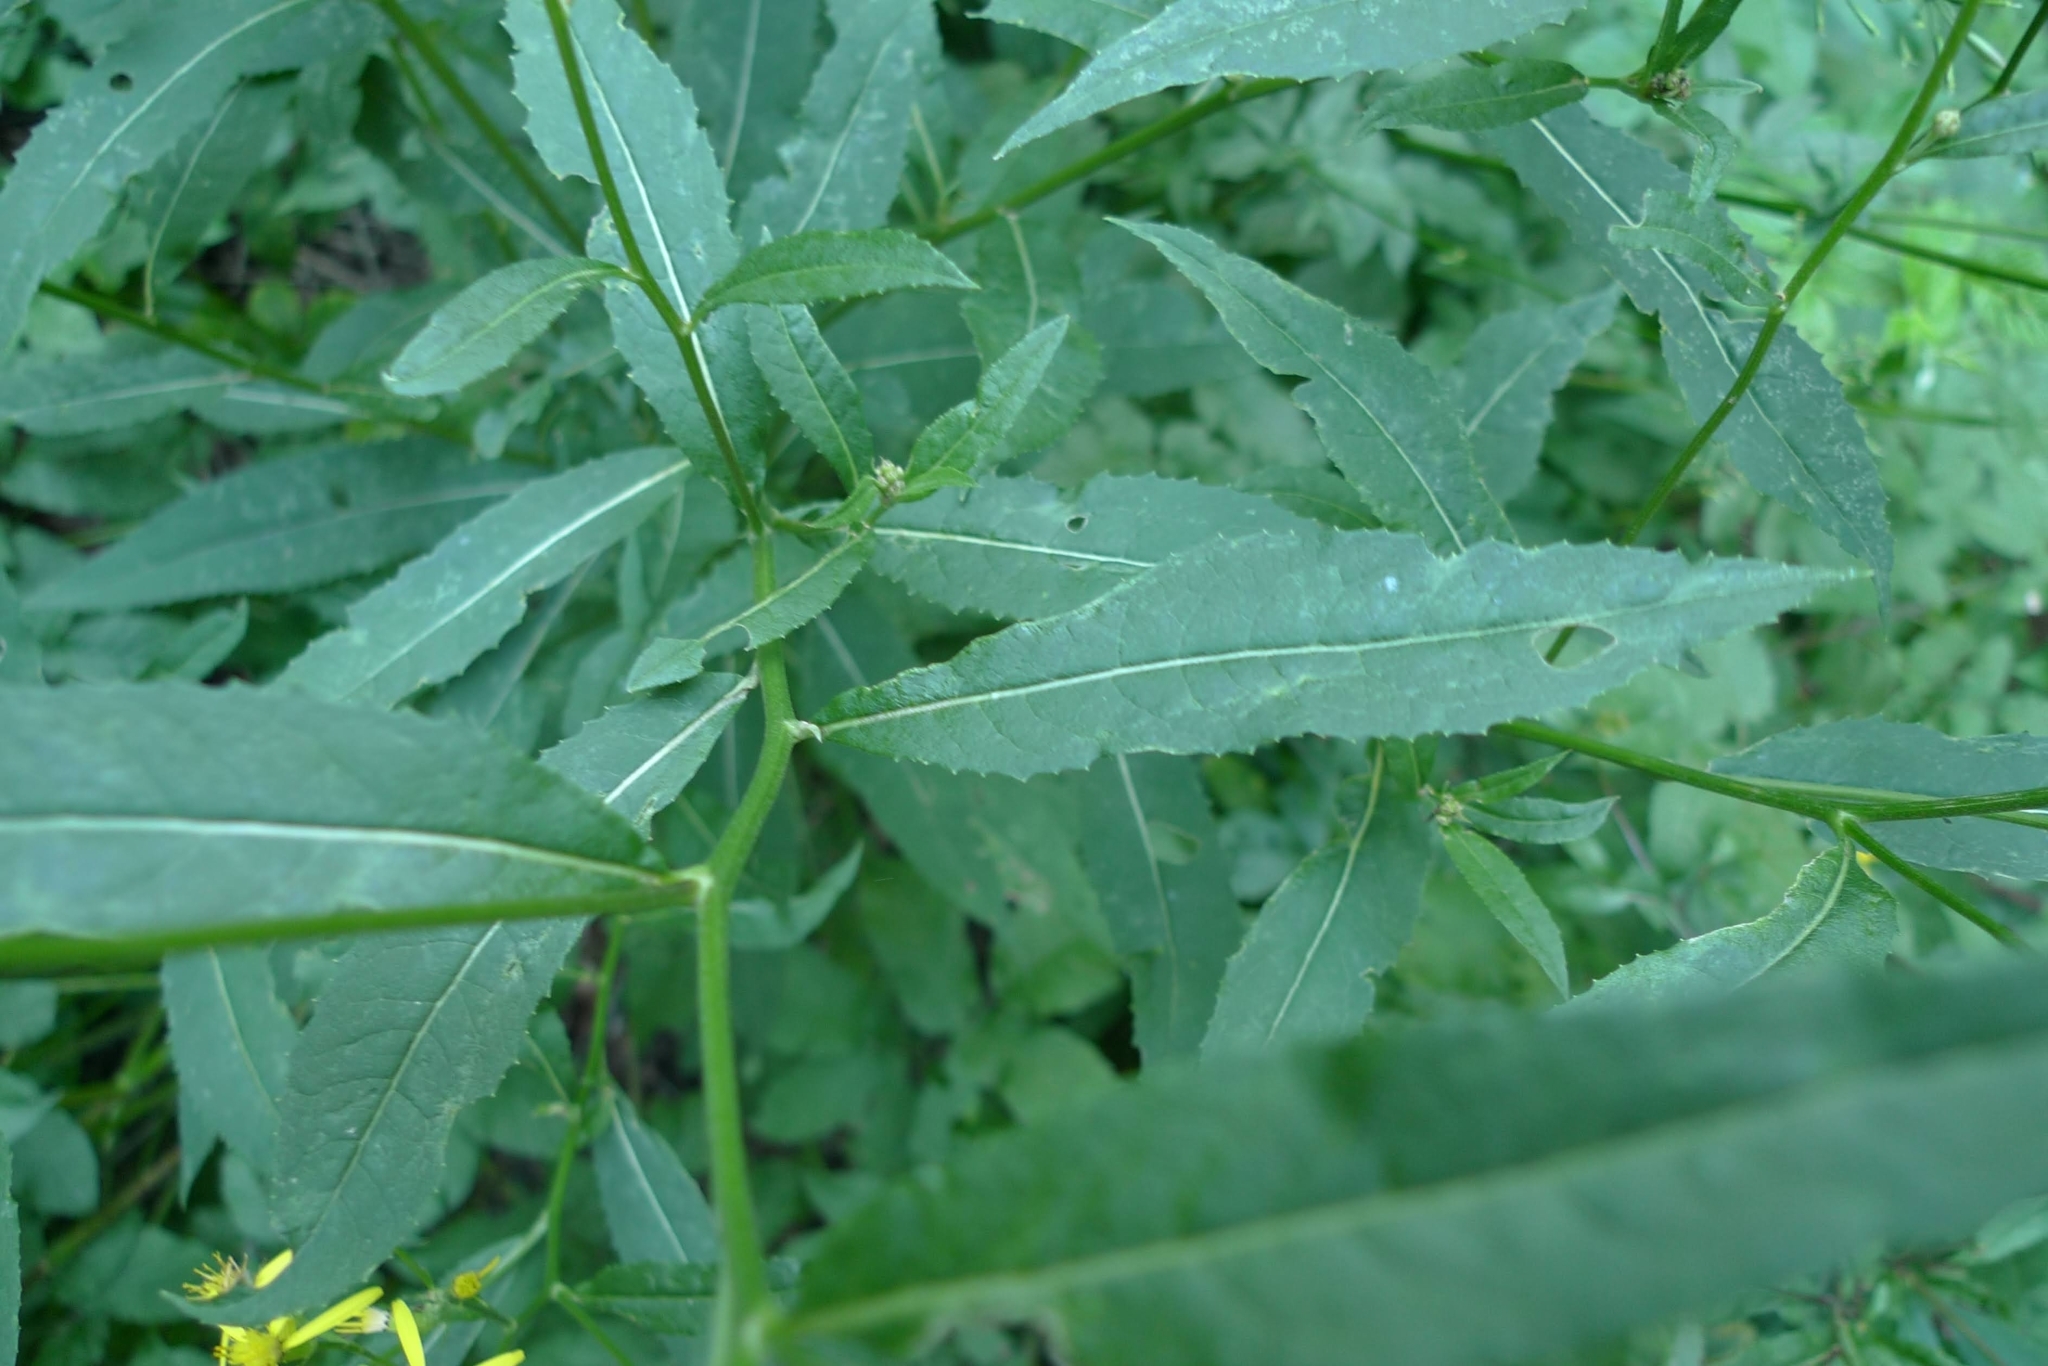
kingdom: Plantae
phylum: Tracheophyta
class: Magnoliopsida
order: Asterales
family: Asteraceae
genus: Senecio
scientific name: Senecio ovatus
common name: Wood ragwort
